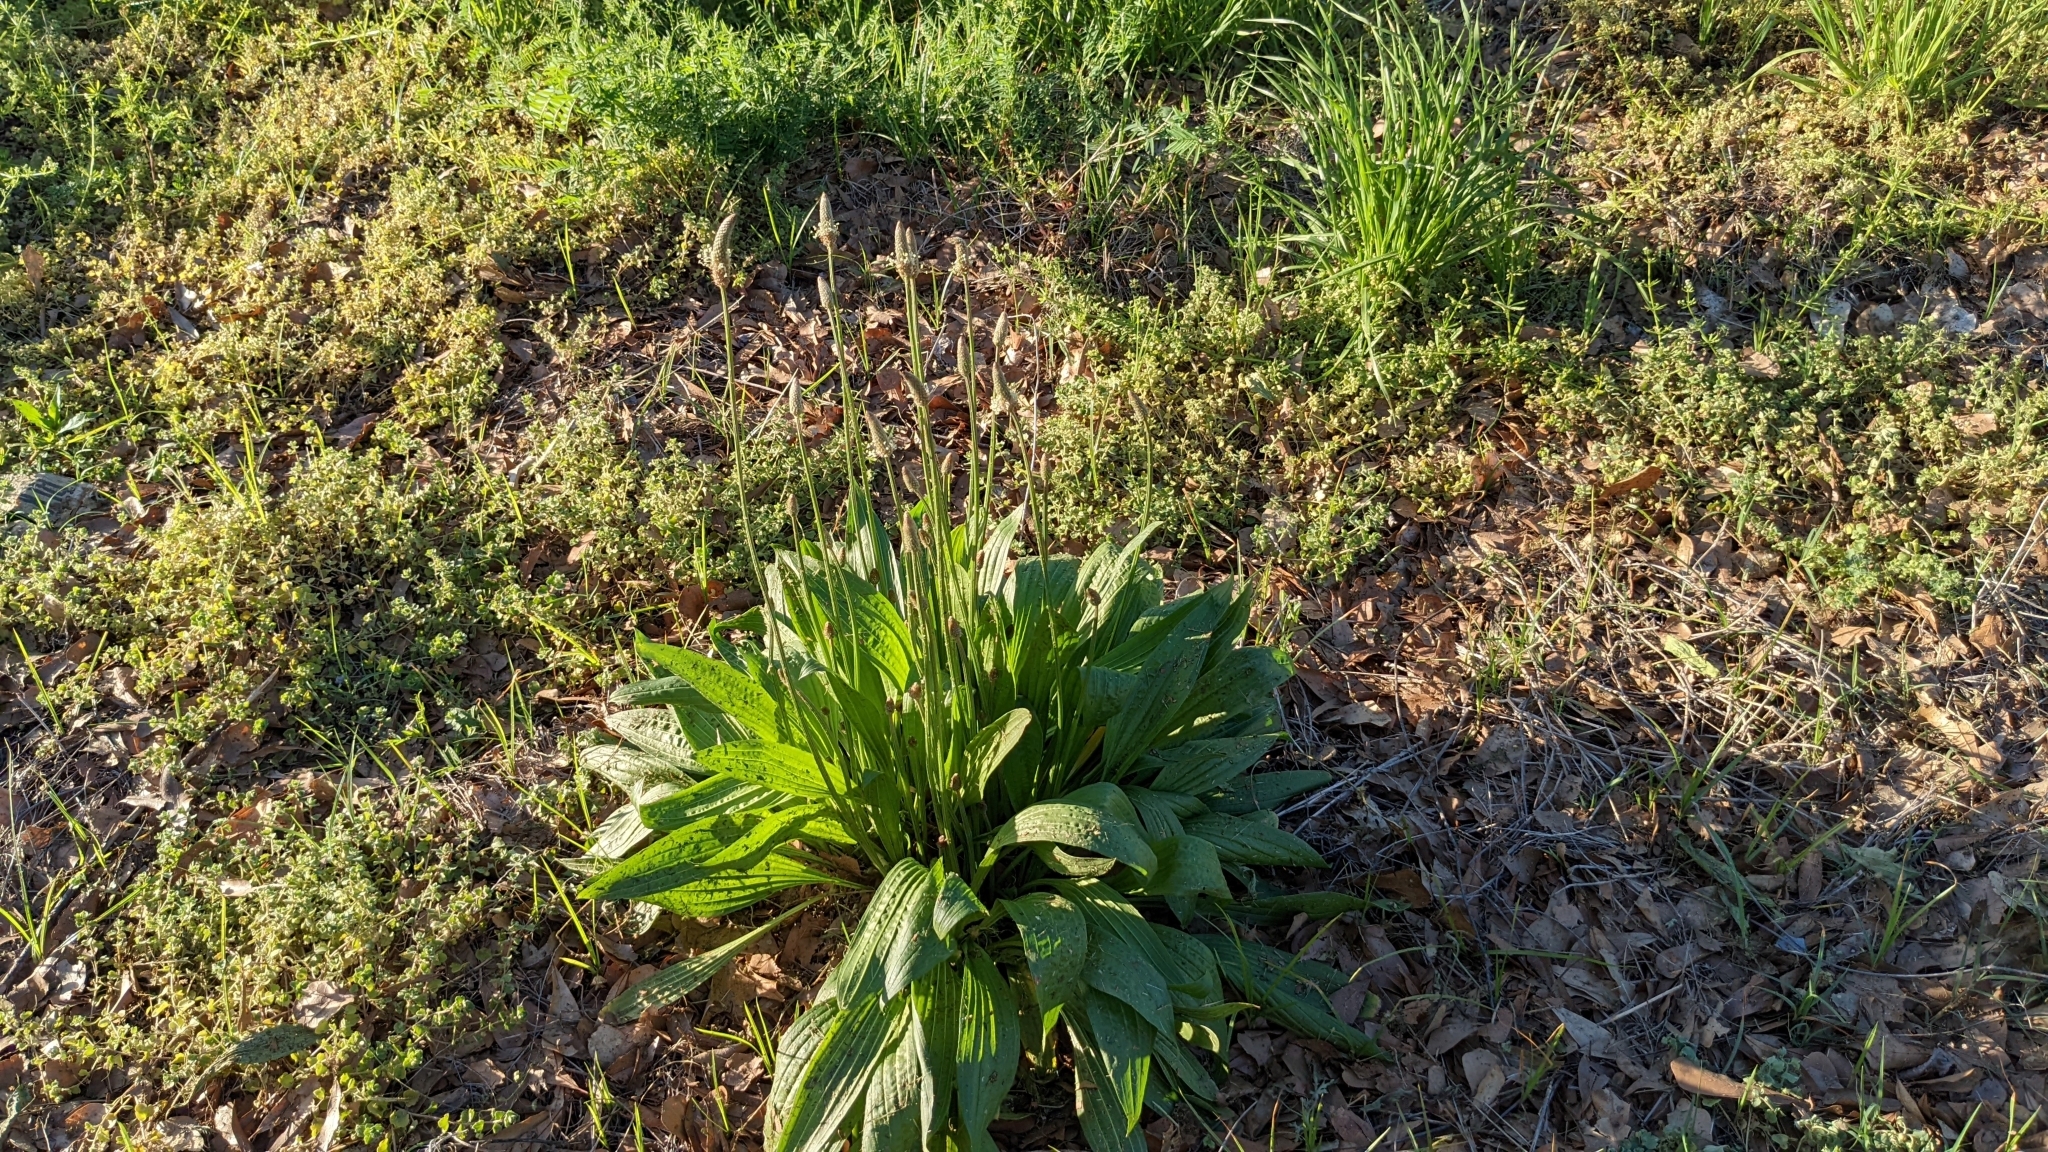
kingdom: Plantae
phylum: Tracheophyta
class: Magnoliopsida
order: Lamiales
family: Plantaginaceae
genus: Plantago
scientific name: Plantago lanceolata
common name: Ribwort plantain
